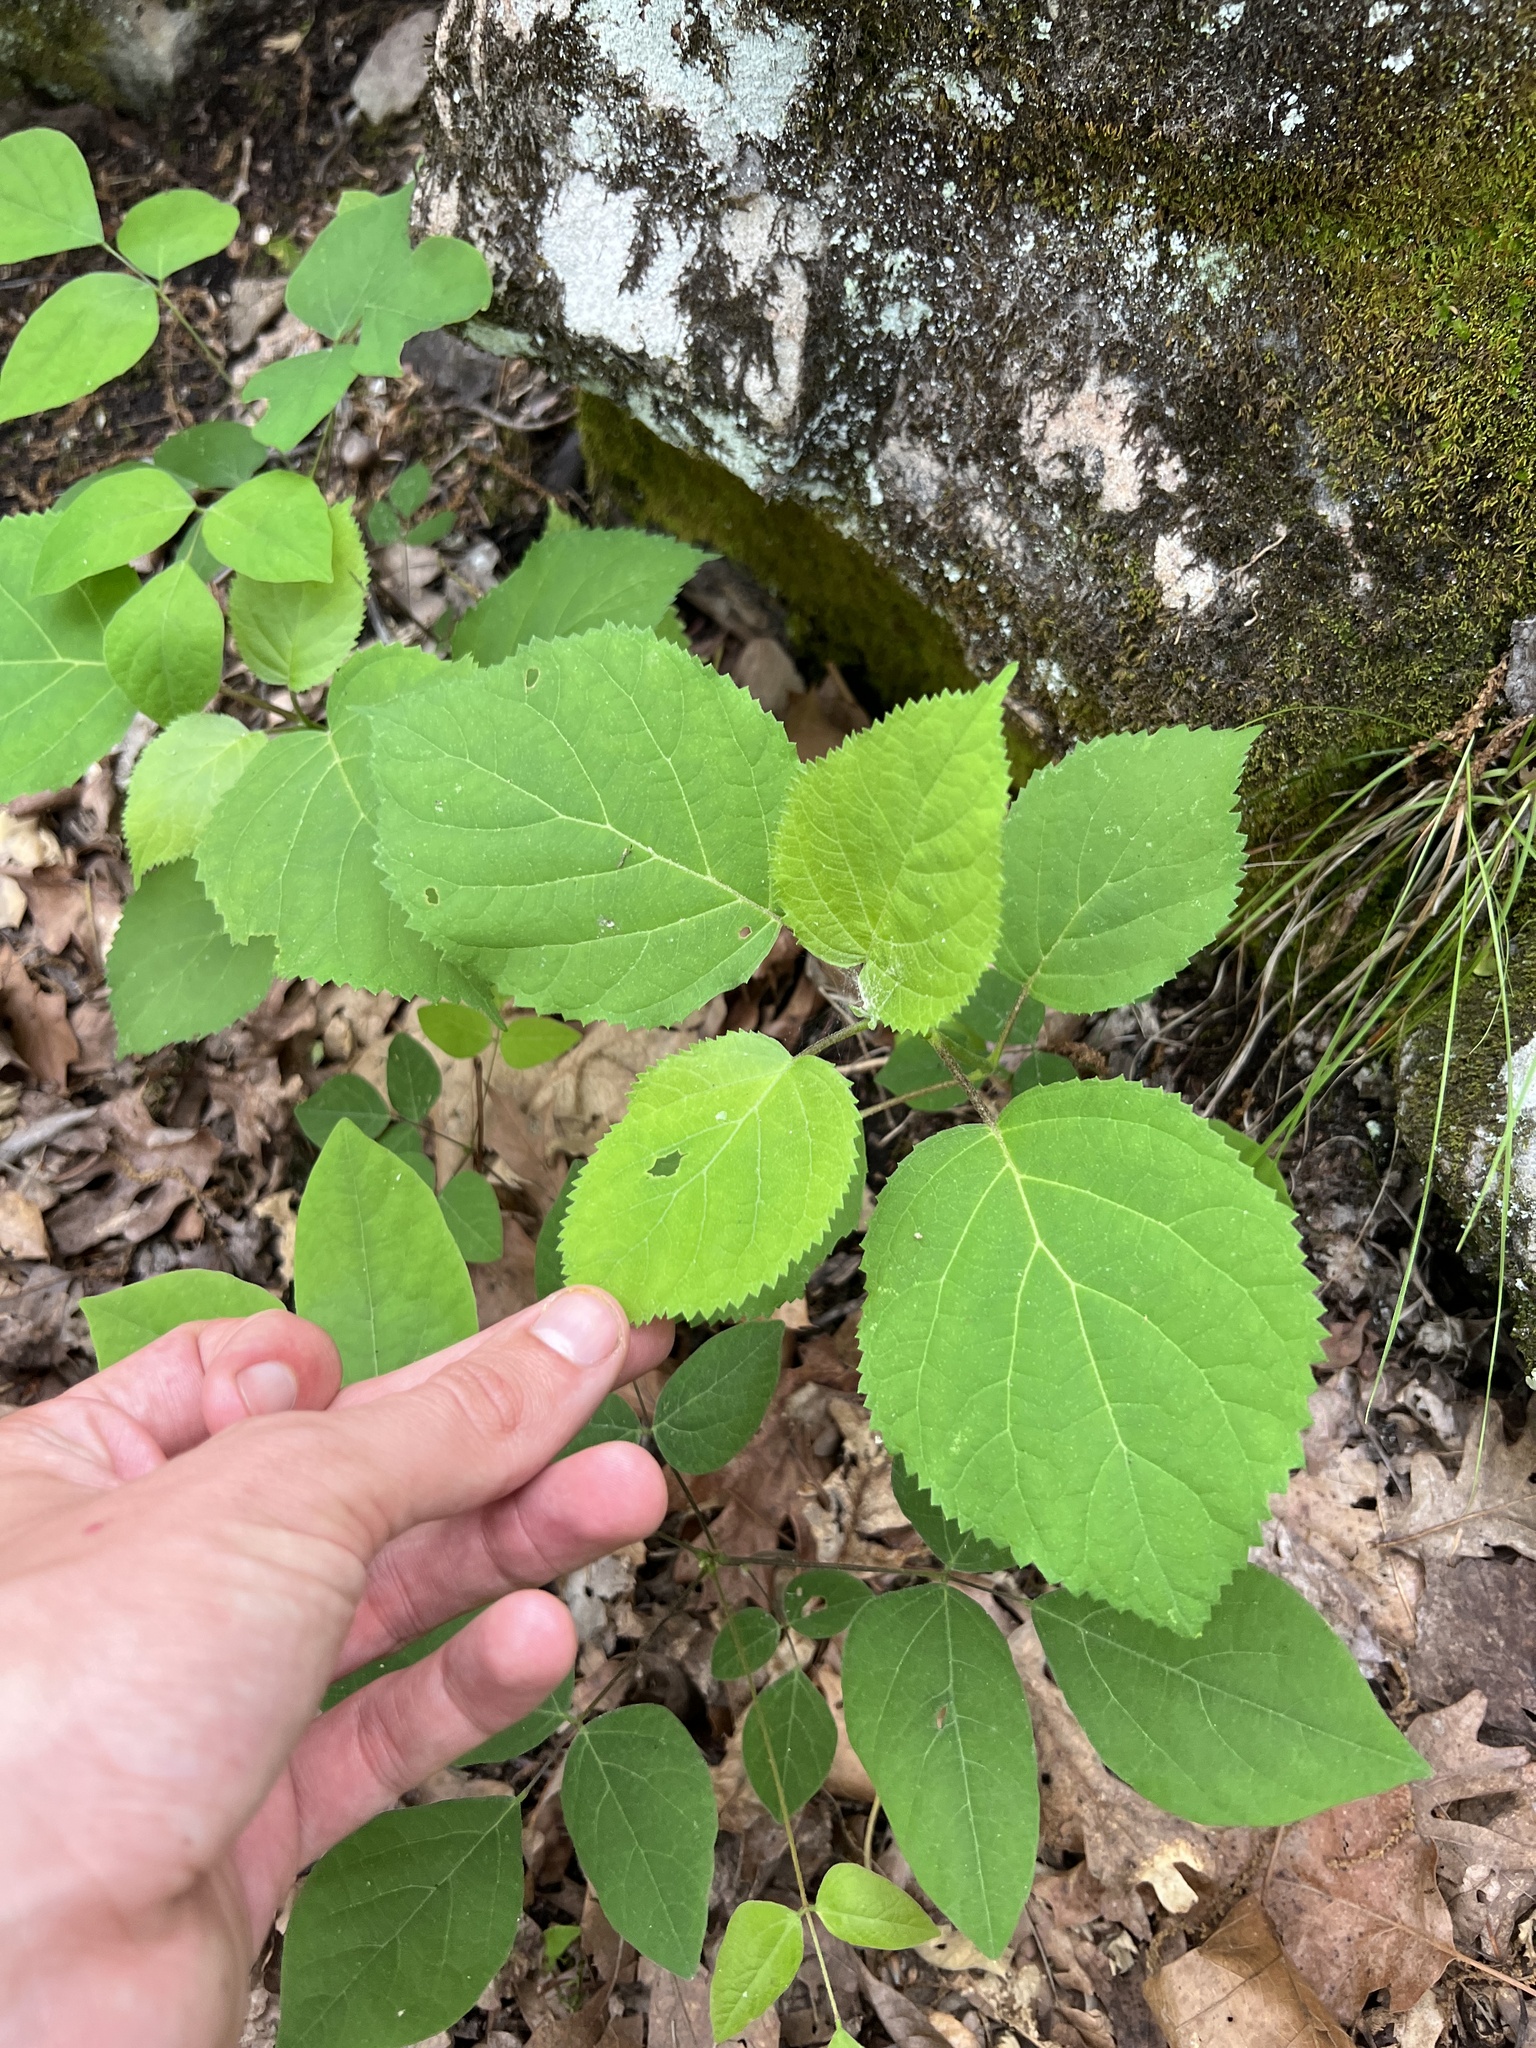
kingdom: Plantae
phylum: Tracheophyta
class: Magnoliopsida
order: Cornales
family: Hydrangeaceae
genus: Hydrangea
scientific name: Hydrangea arborescens
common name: Sevenbark
